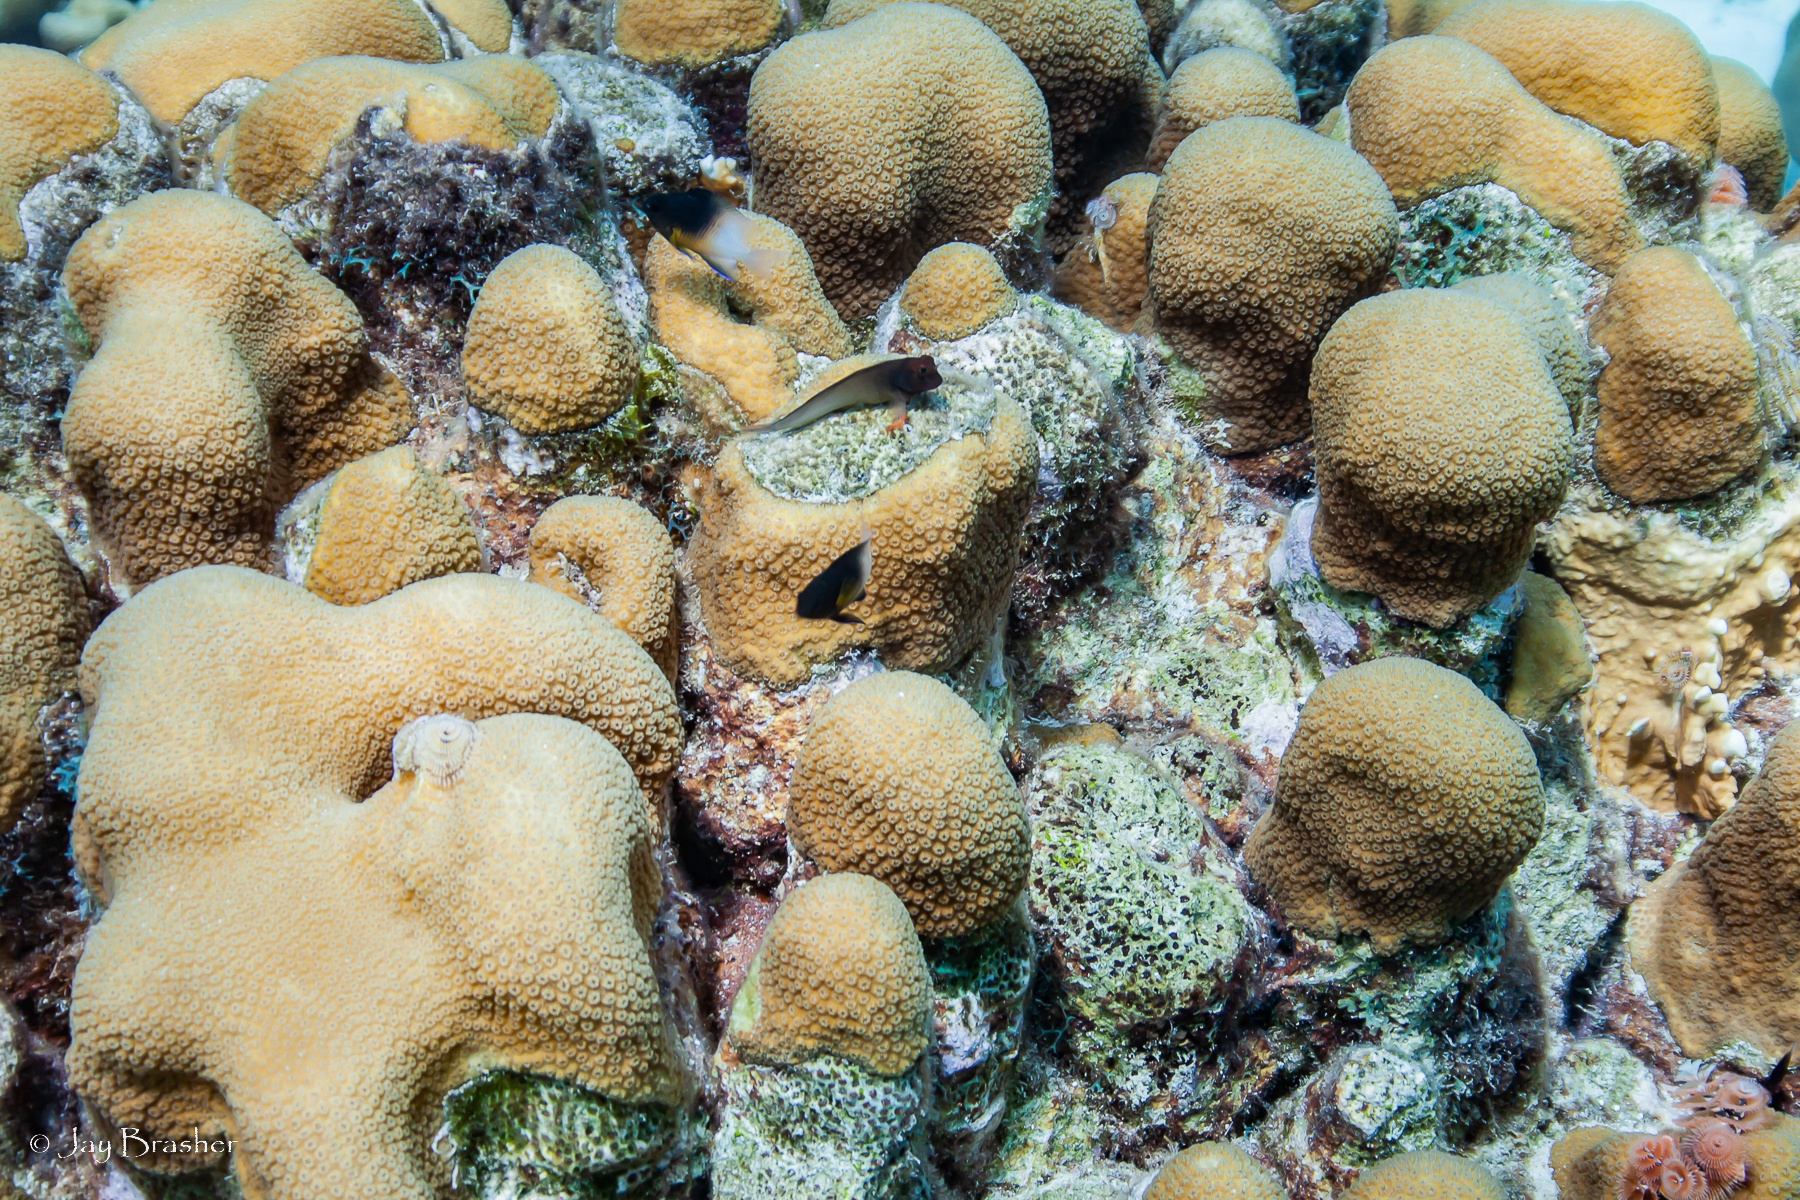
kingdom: Animalia
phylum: Cnidaria
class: Anthozoa
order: Scleractinia
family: Merulinidae
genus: Orbicella
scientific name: Orbicella annularis
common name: Boulder star coral
